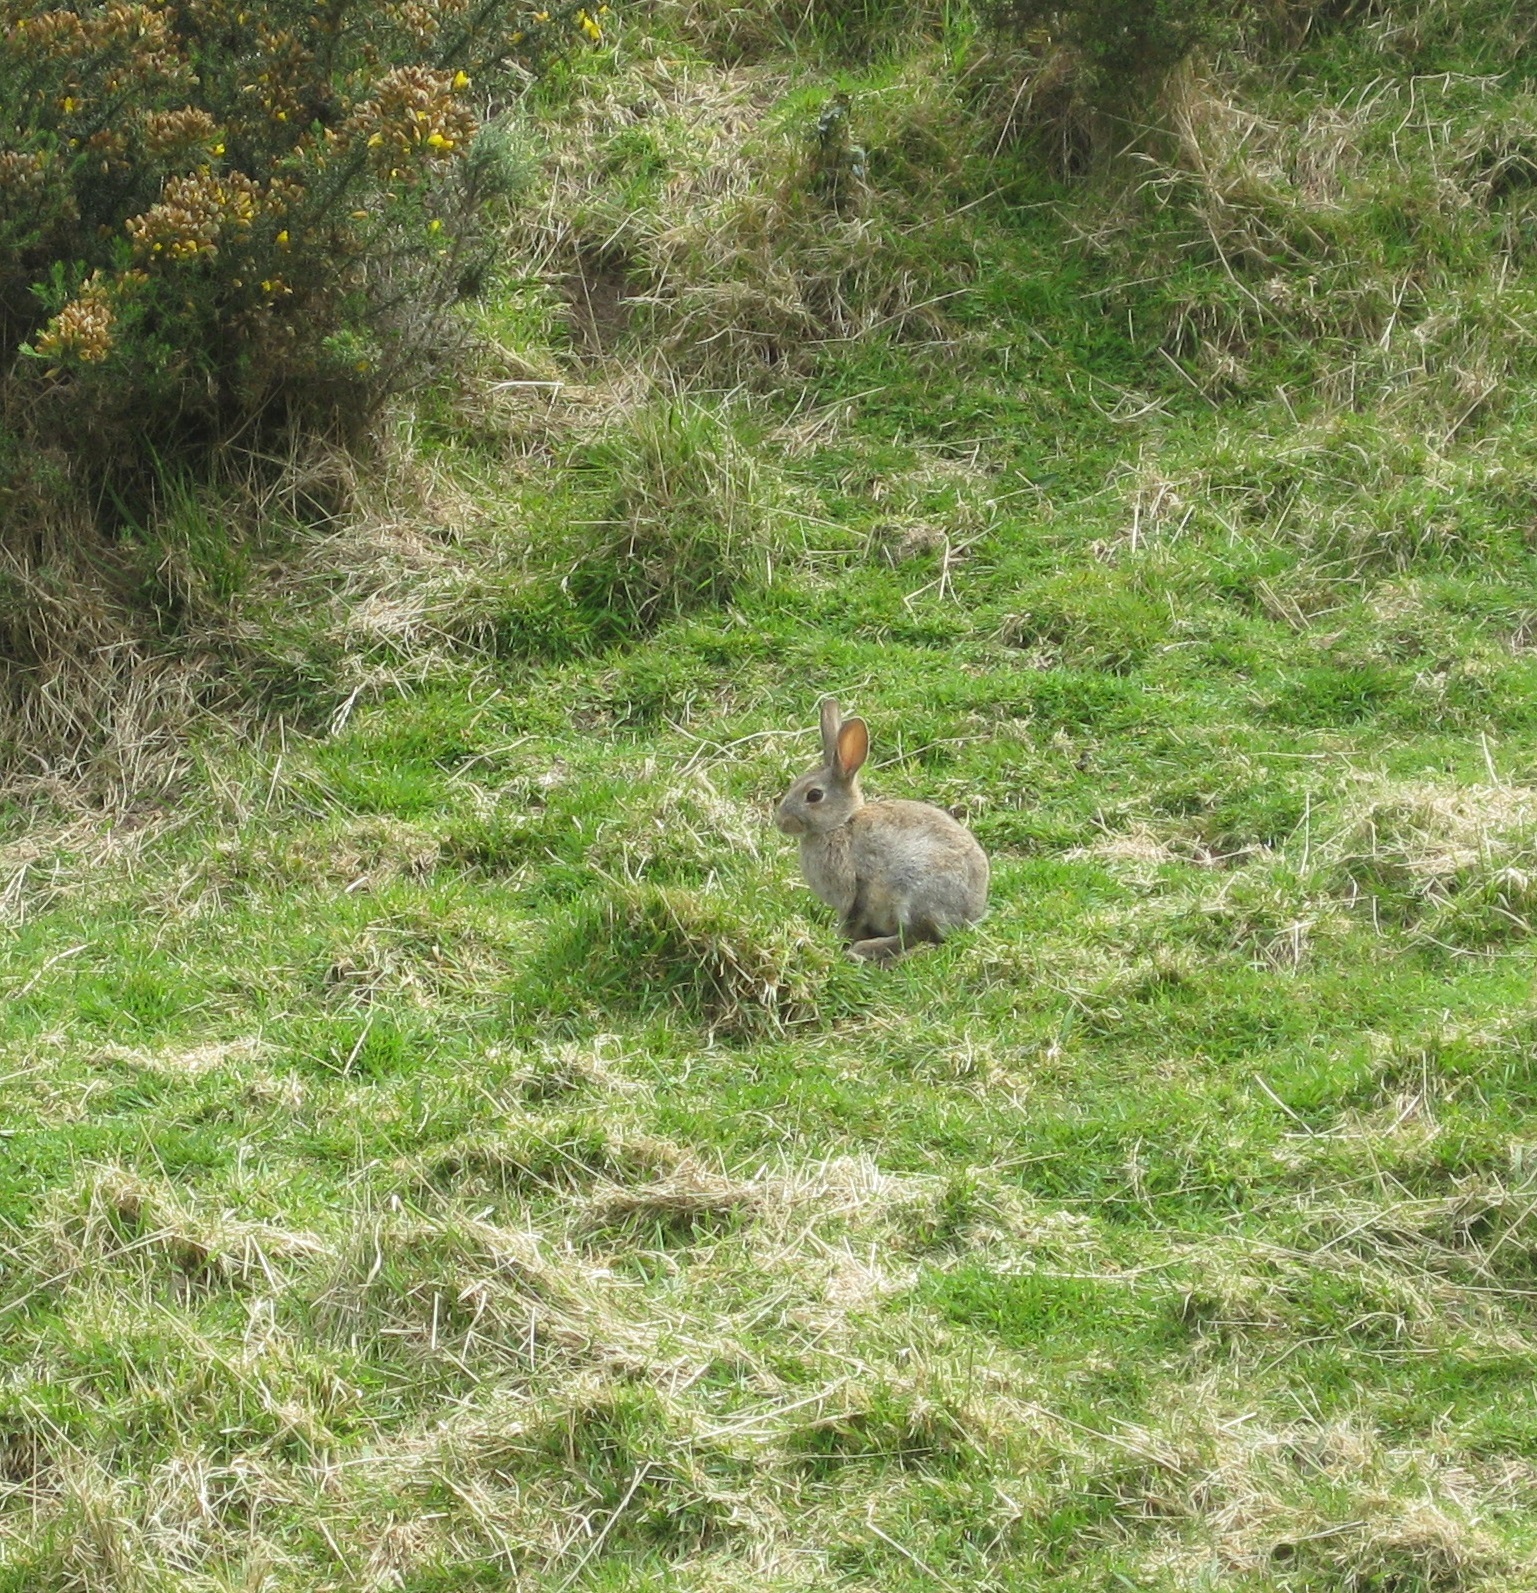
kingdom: Animalia
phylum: Chordata
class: Mammalia
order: Lagomorpha
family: Leporidae
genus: Oryctolagus
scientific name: Oryctolagus cuniculus
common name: European rabbit
